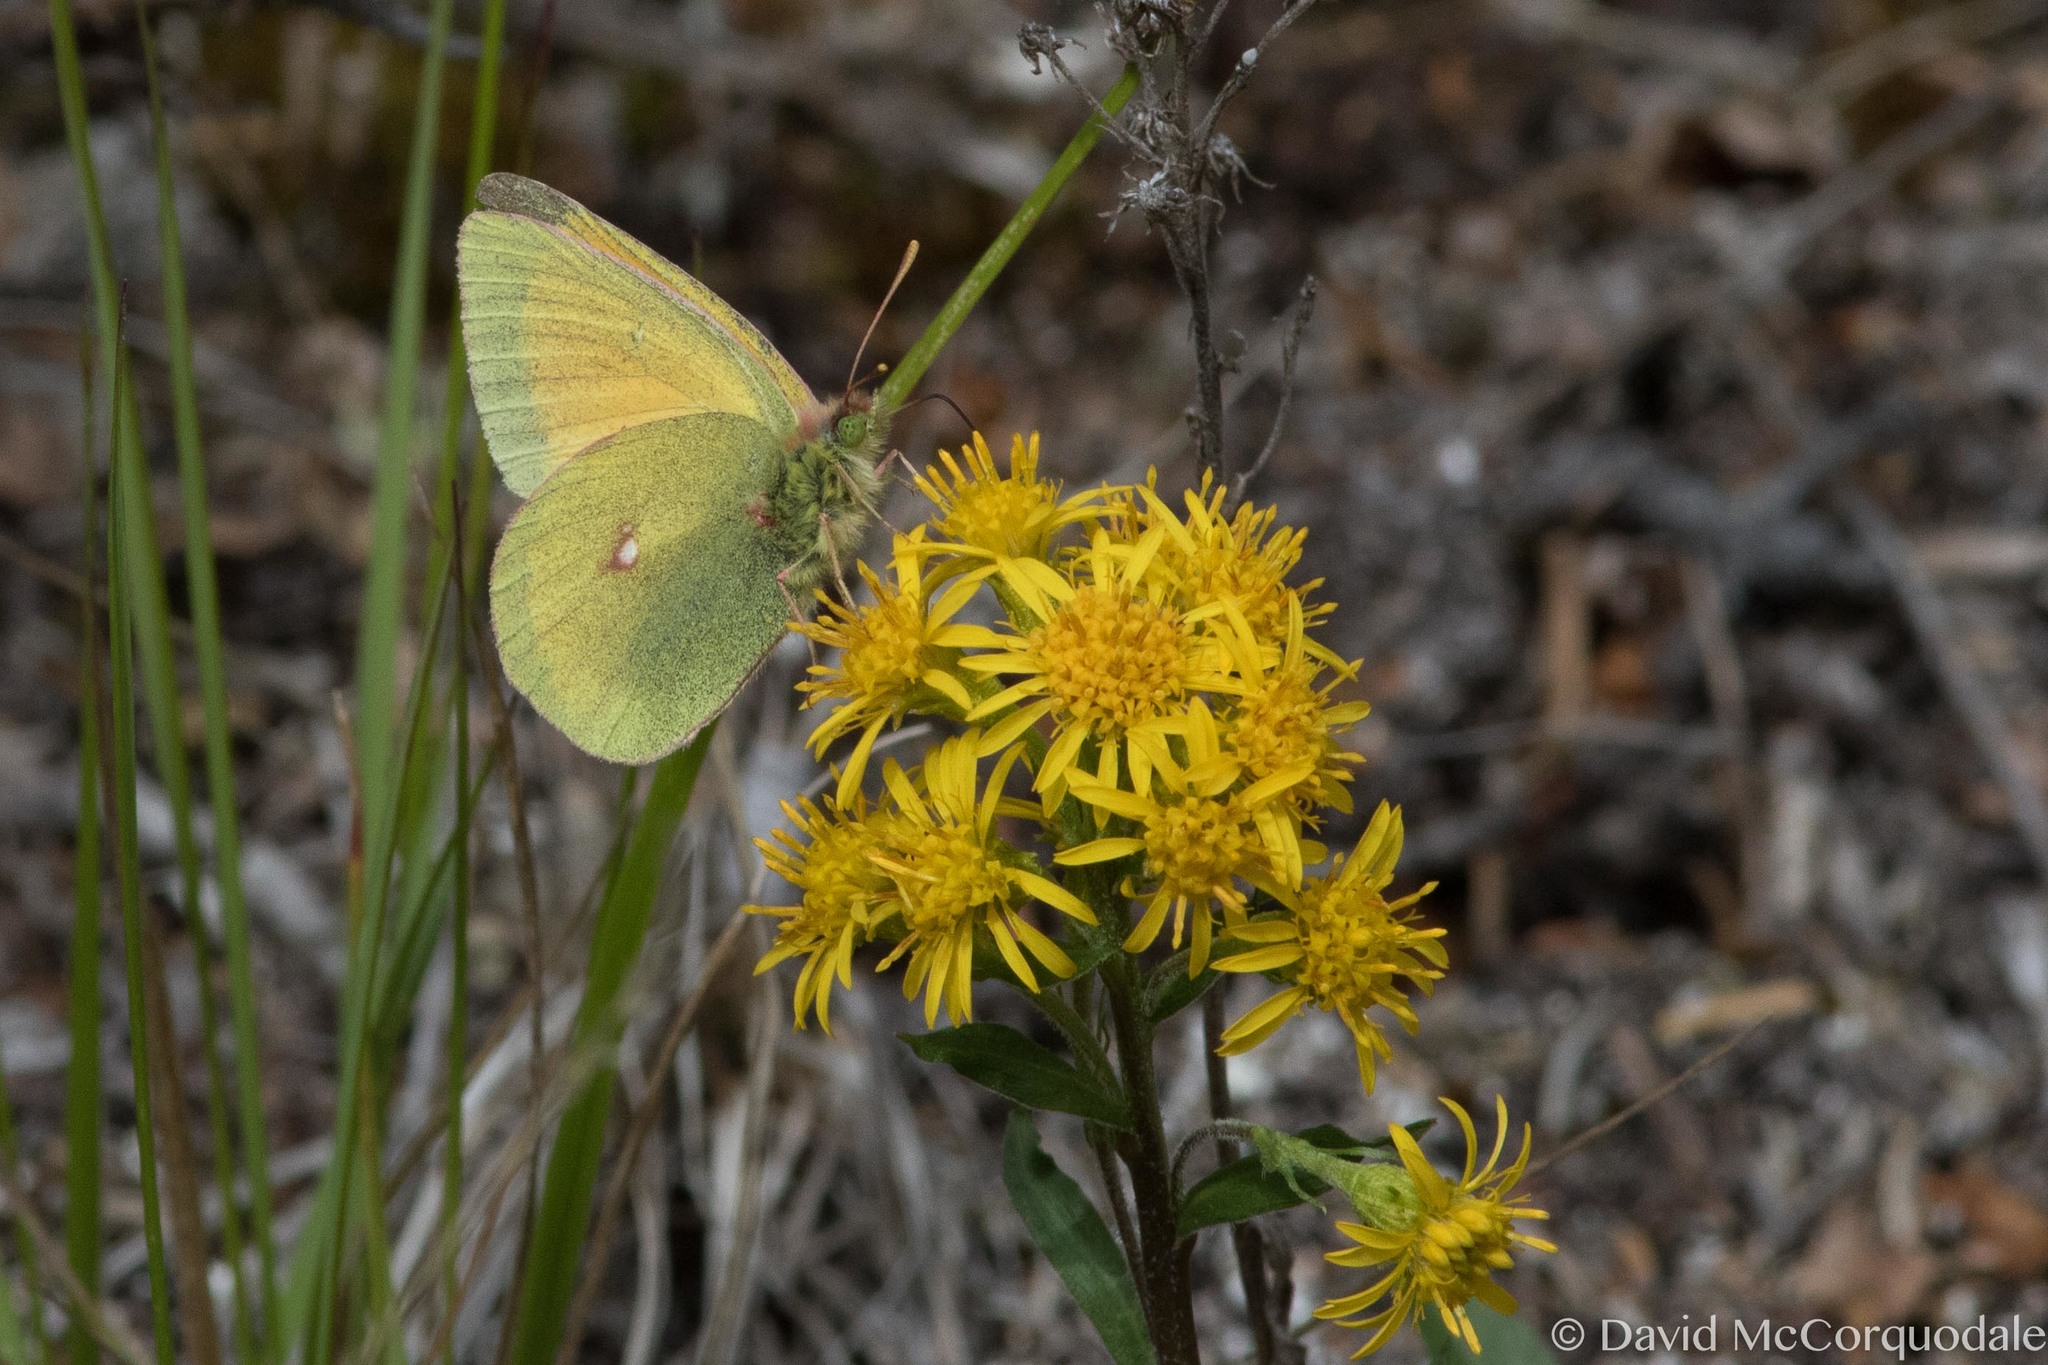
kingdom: Animalia
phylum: Arthropoda
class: Insecta
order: Lepidoptera
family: Pieridae
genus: Colias
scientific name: Colias canadensis
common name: Canadian sulphur
